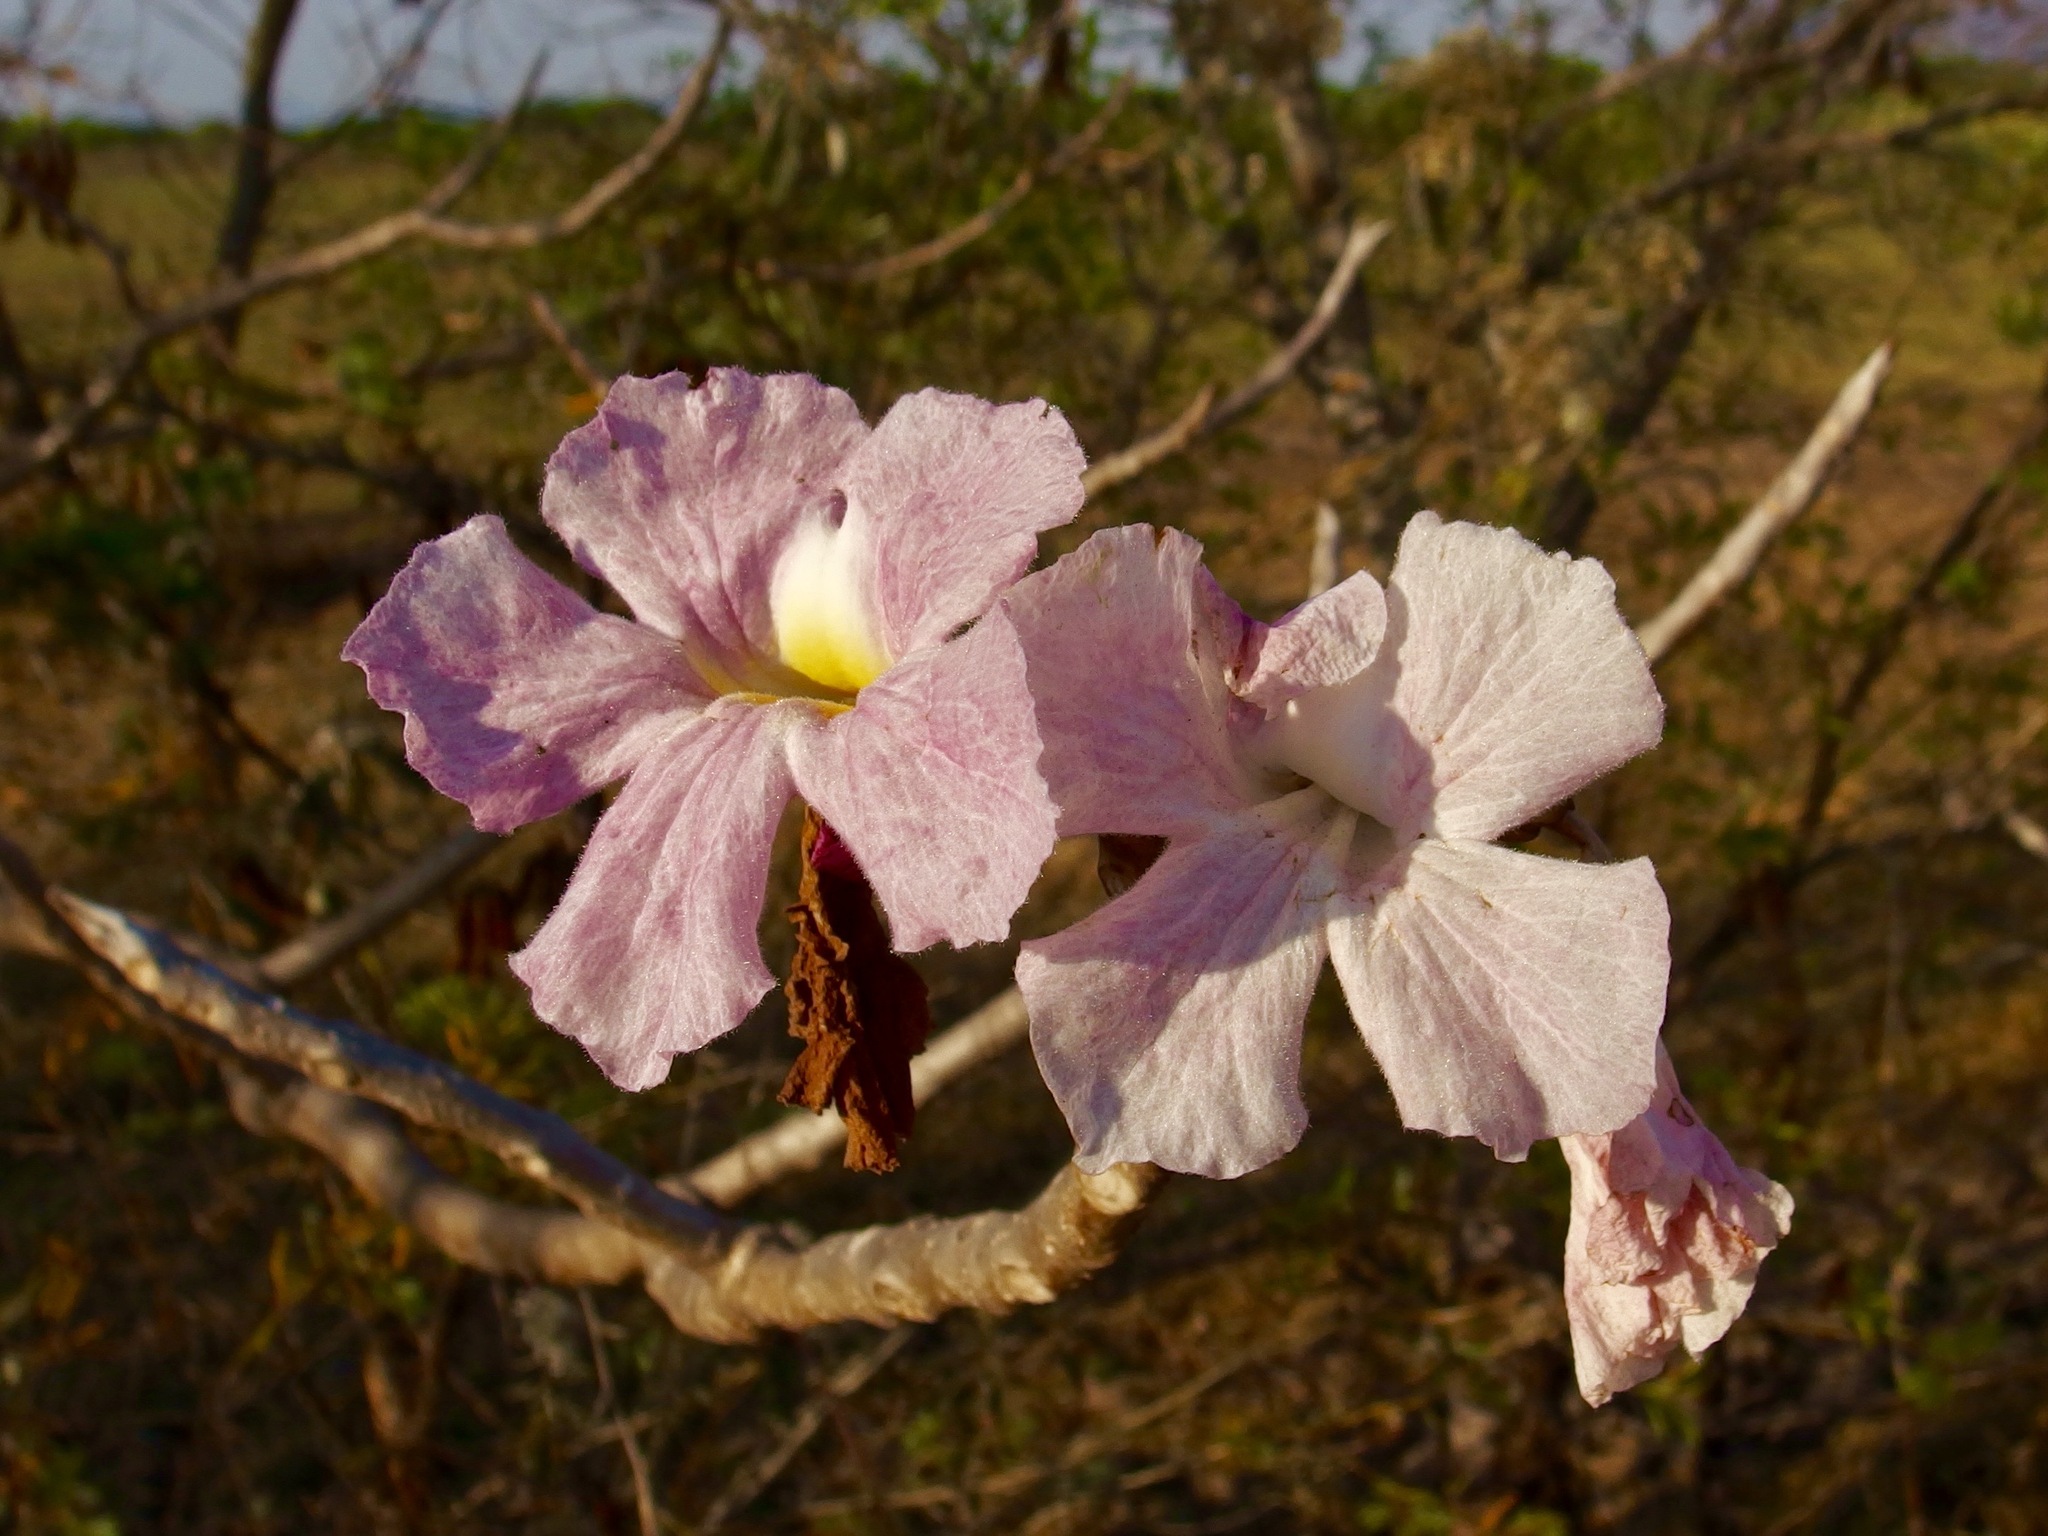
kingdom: Plantae
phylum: Tracheophyta
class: Magnoliopsida
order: Lamiales
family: Bignoniaceae
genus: Tabebuia
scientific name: Tabebuia rosea
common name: Pink poui
